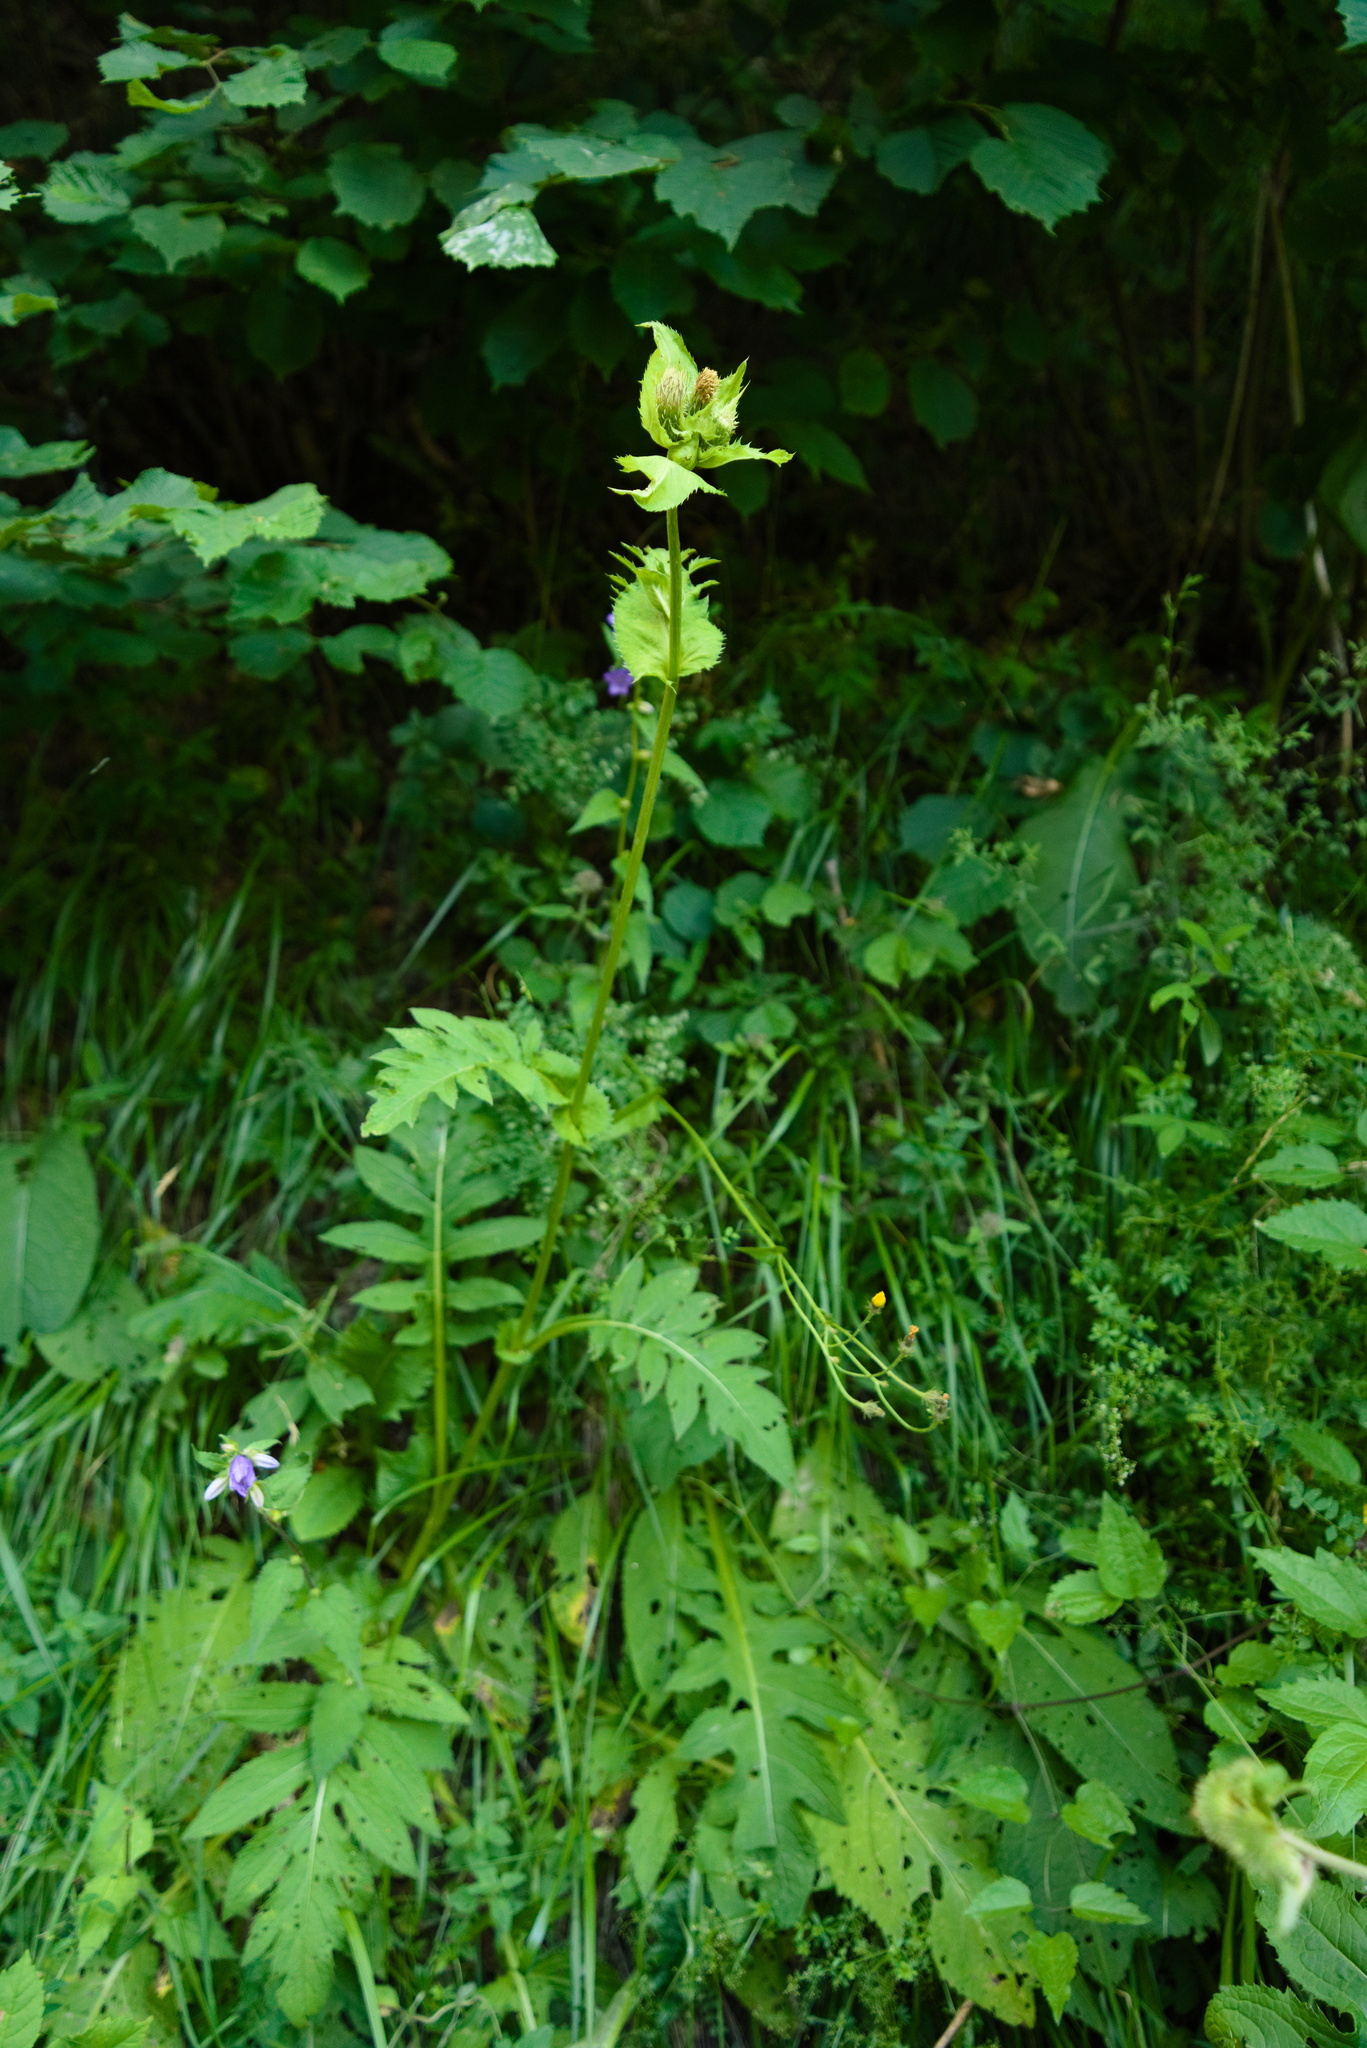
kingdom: Plantae
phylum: Tracheophyta
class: Magnoliopsida
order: Asterales
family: Asteraceae
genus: Cirsium
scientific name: Cirsium oleraceum
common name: Cabbage thistle
